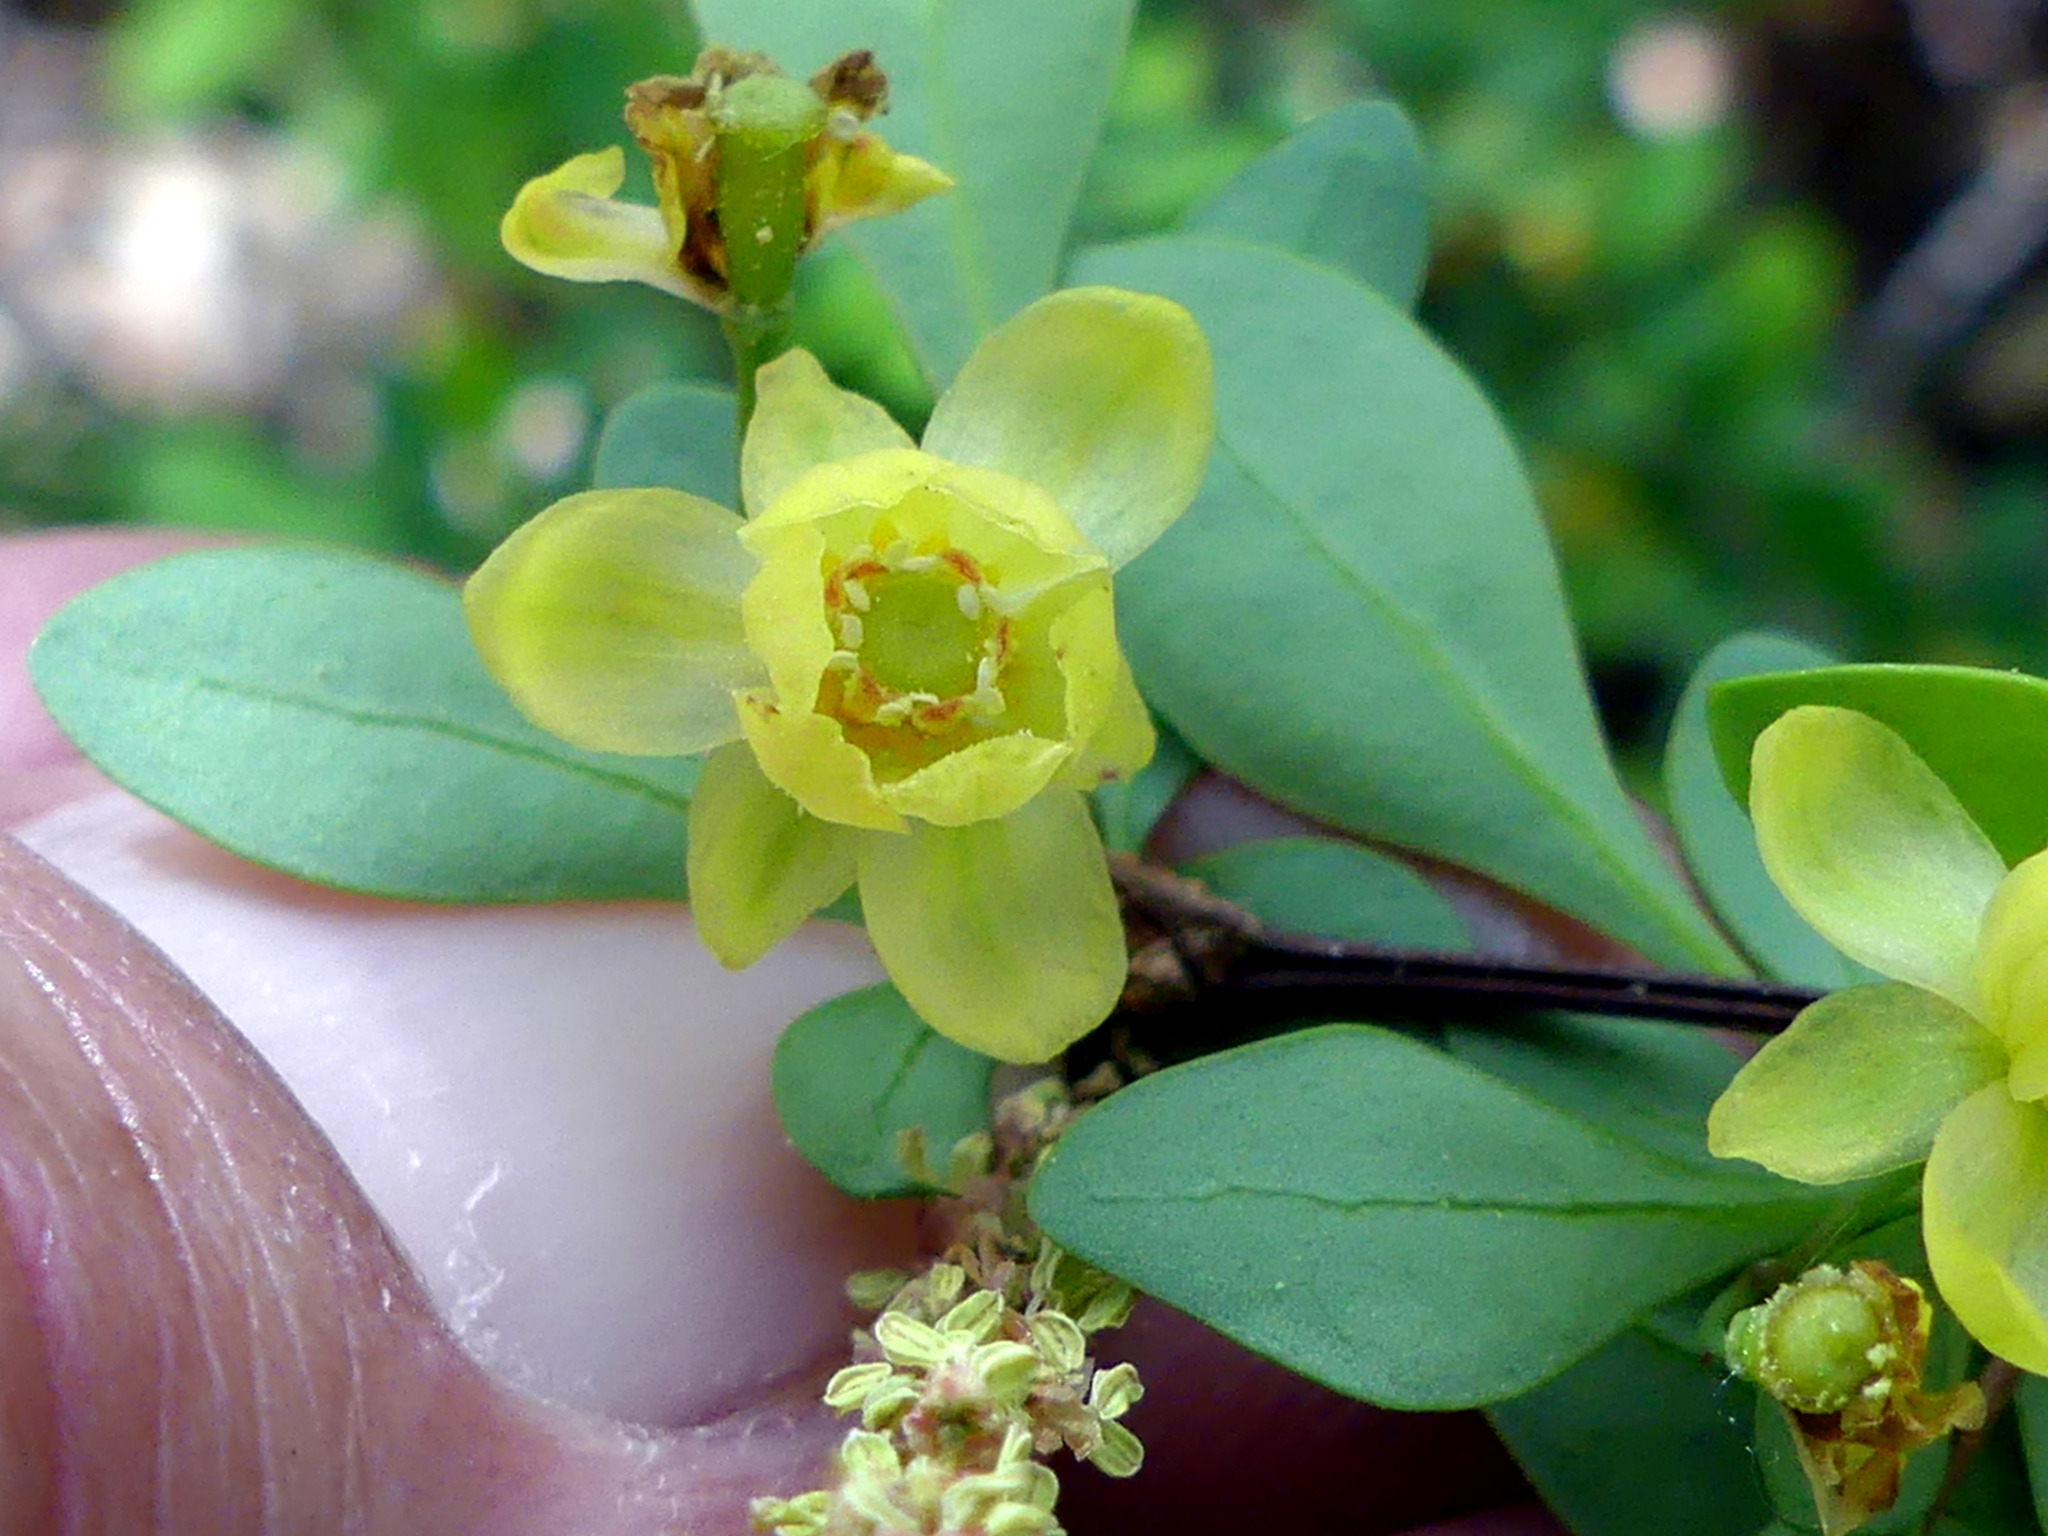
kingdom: Plantae
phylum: Tracheophyta
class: Magnoliopsida
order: Ranunculales
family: Berberidaceae
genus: Berberis
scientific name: Berberis thunbergii
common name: Japanese barberry
